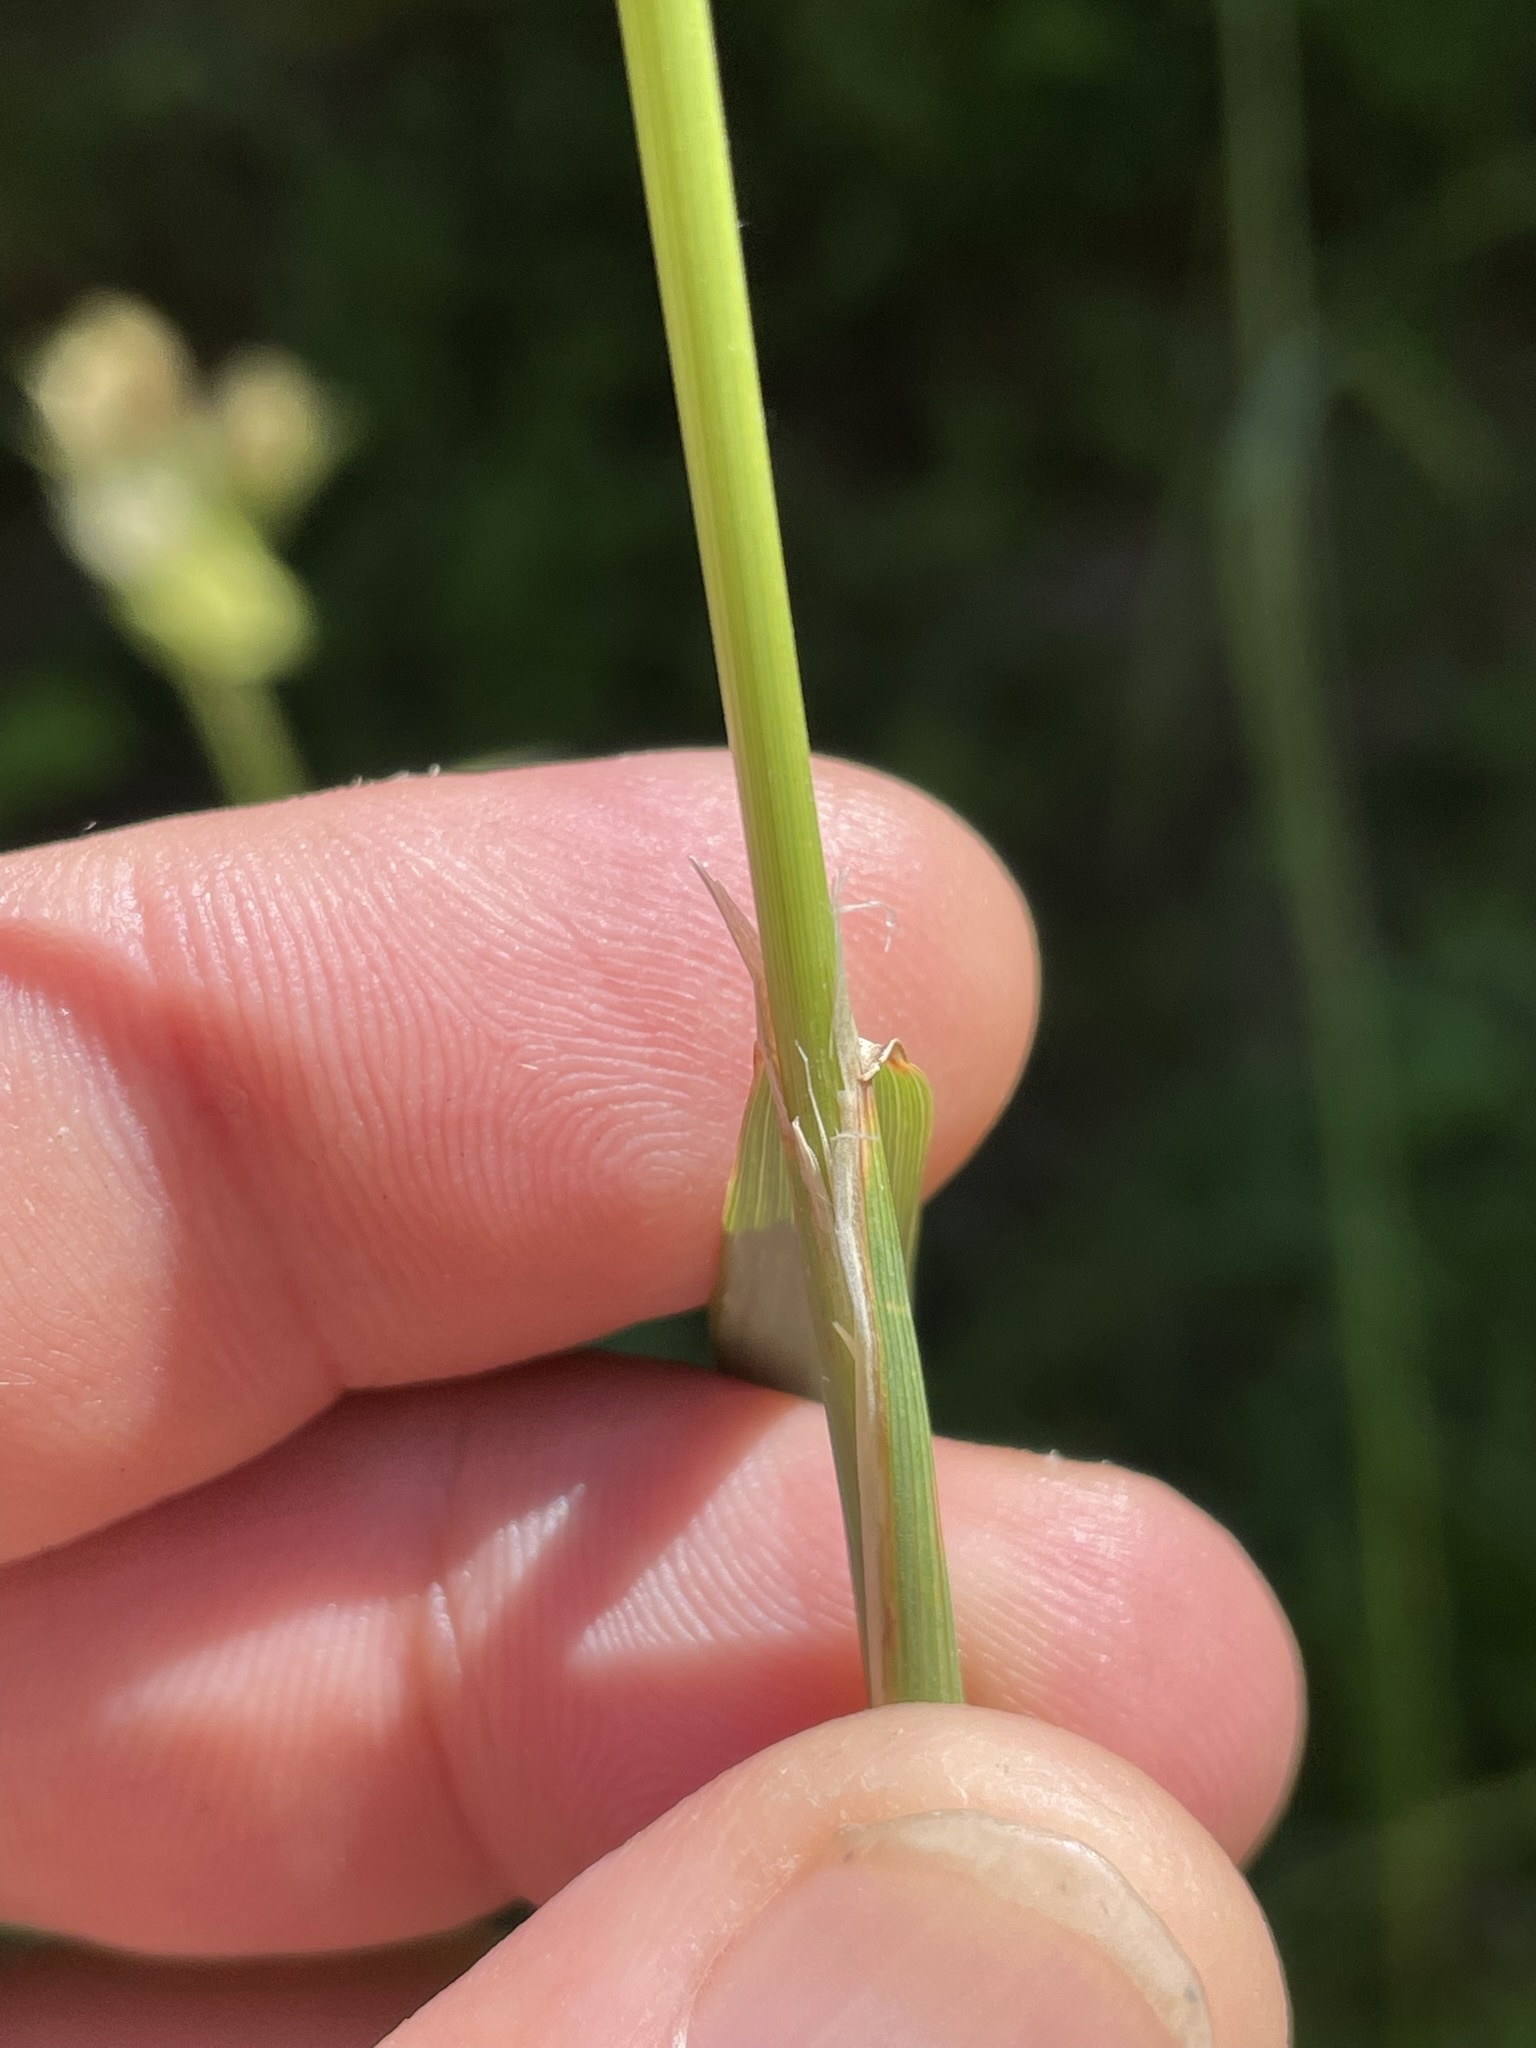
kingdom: Plantae
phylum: Tracheophyta
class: Liliopsida
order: Poales
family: Poaceae
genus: Calamagrostis
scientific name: Calamagrostis epigejos
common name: Wood small-reed
